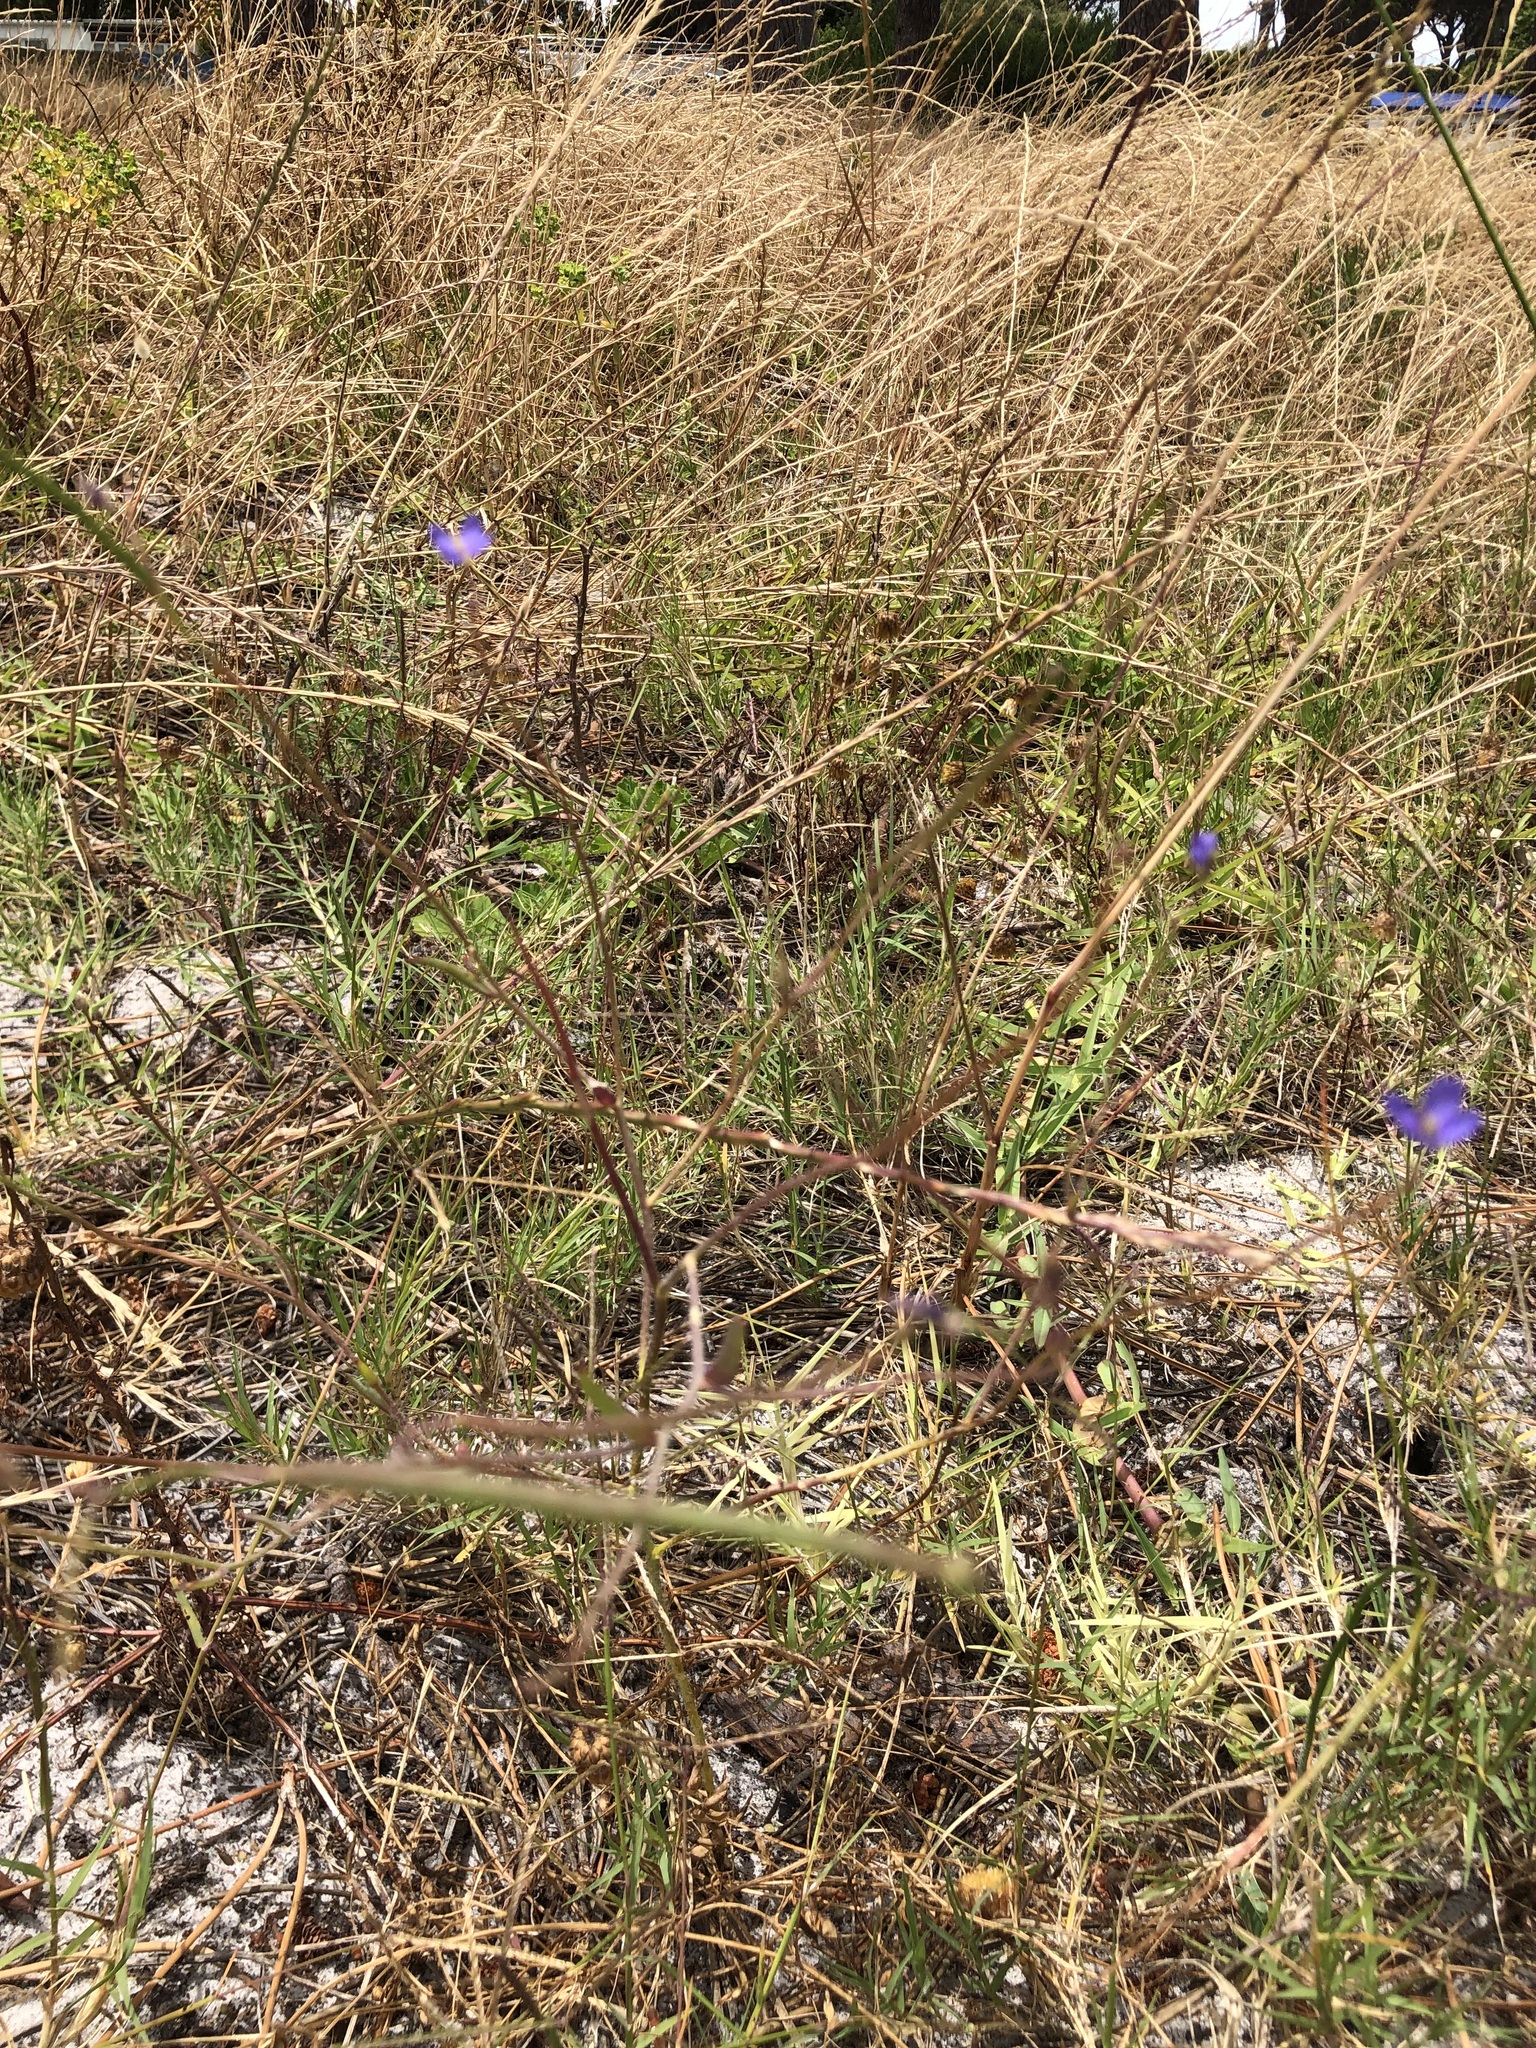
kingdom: Plantae
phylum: Tracheophyta
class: Magnoliopsida
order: Brassicales
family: Brassicaceae
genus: Heliophila
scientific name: Heliophila africana
